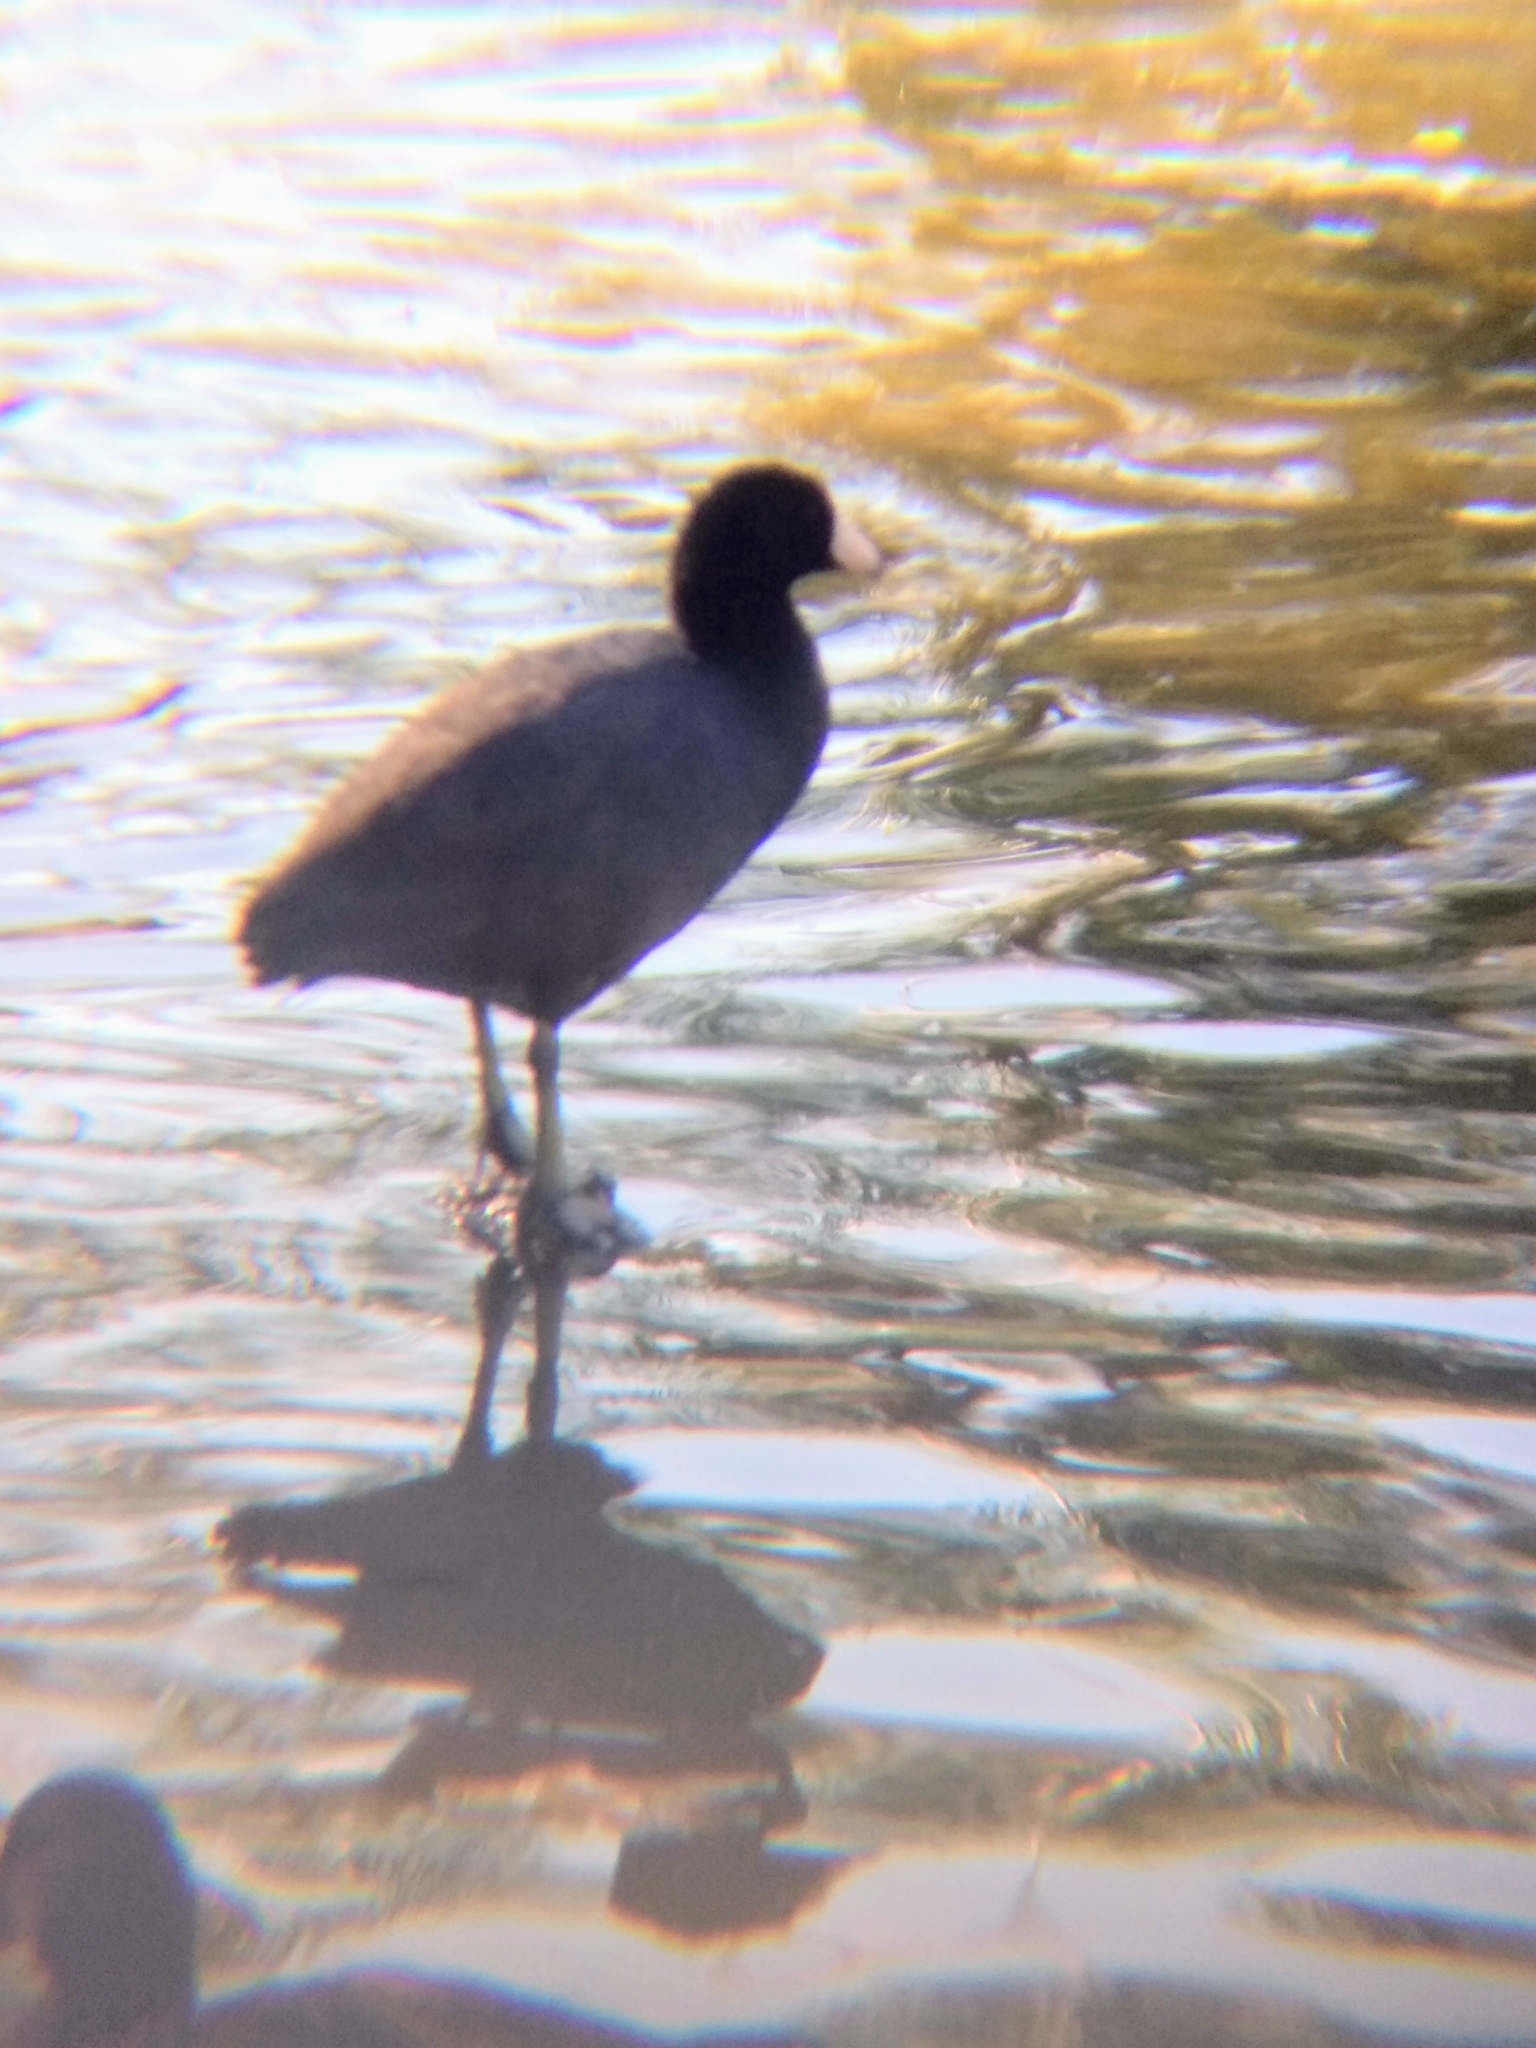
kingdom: Animalia
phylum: Chordata
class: Aves
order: Gruiformes
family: Rallidae
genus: Fulica
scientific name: Fulica americana
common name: American coot
